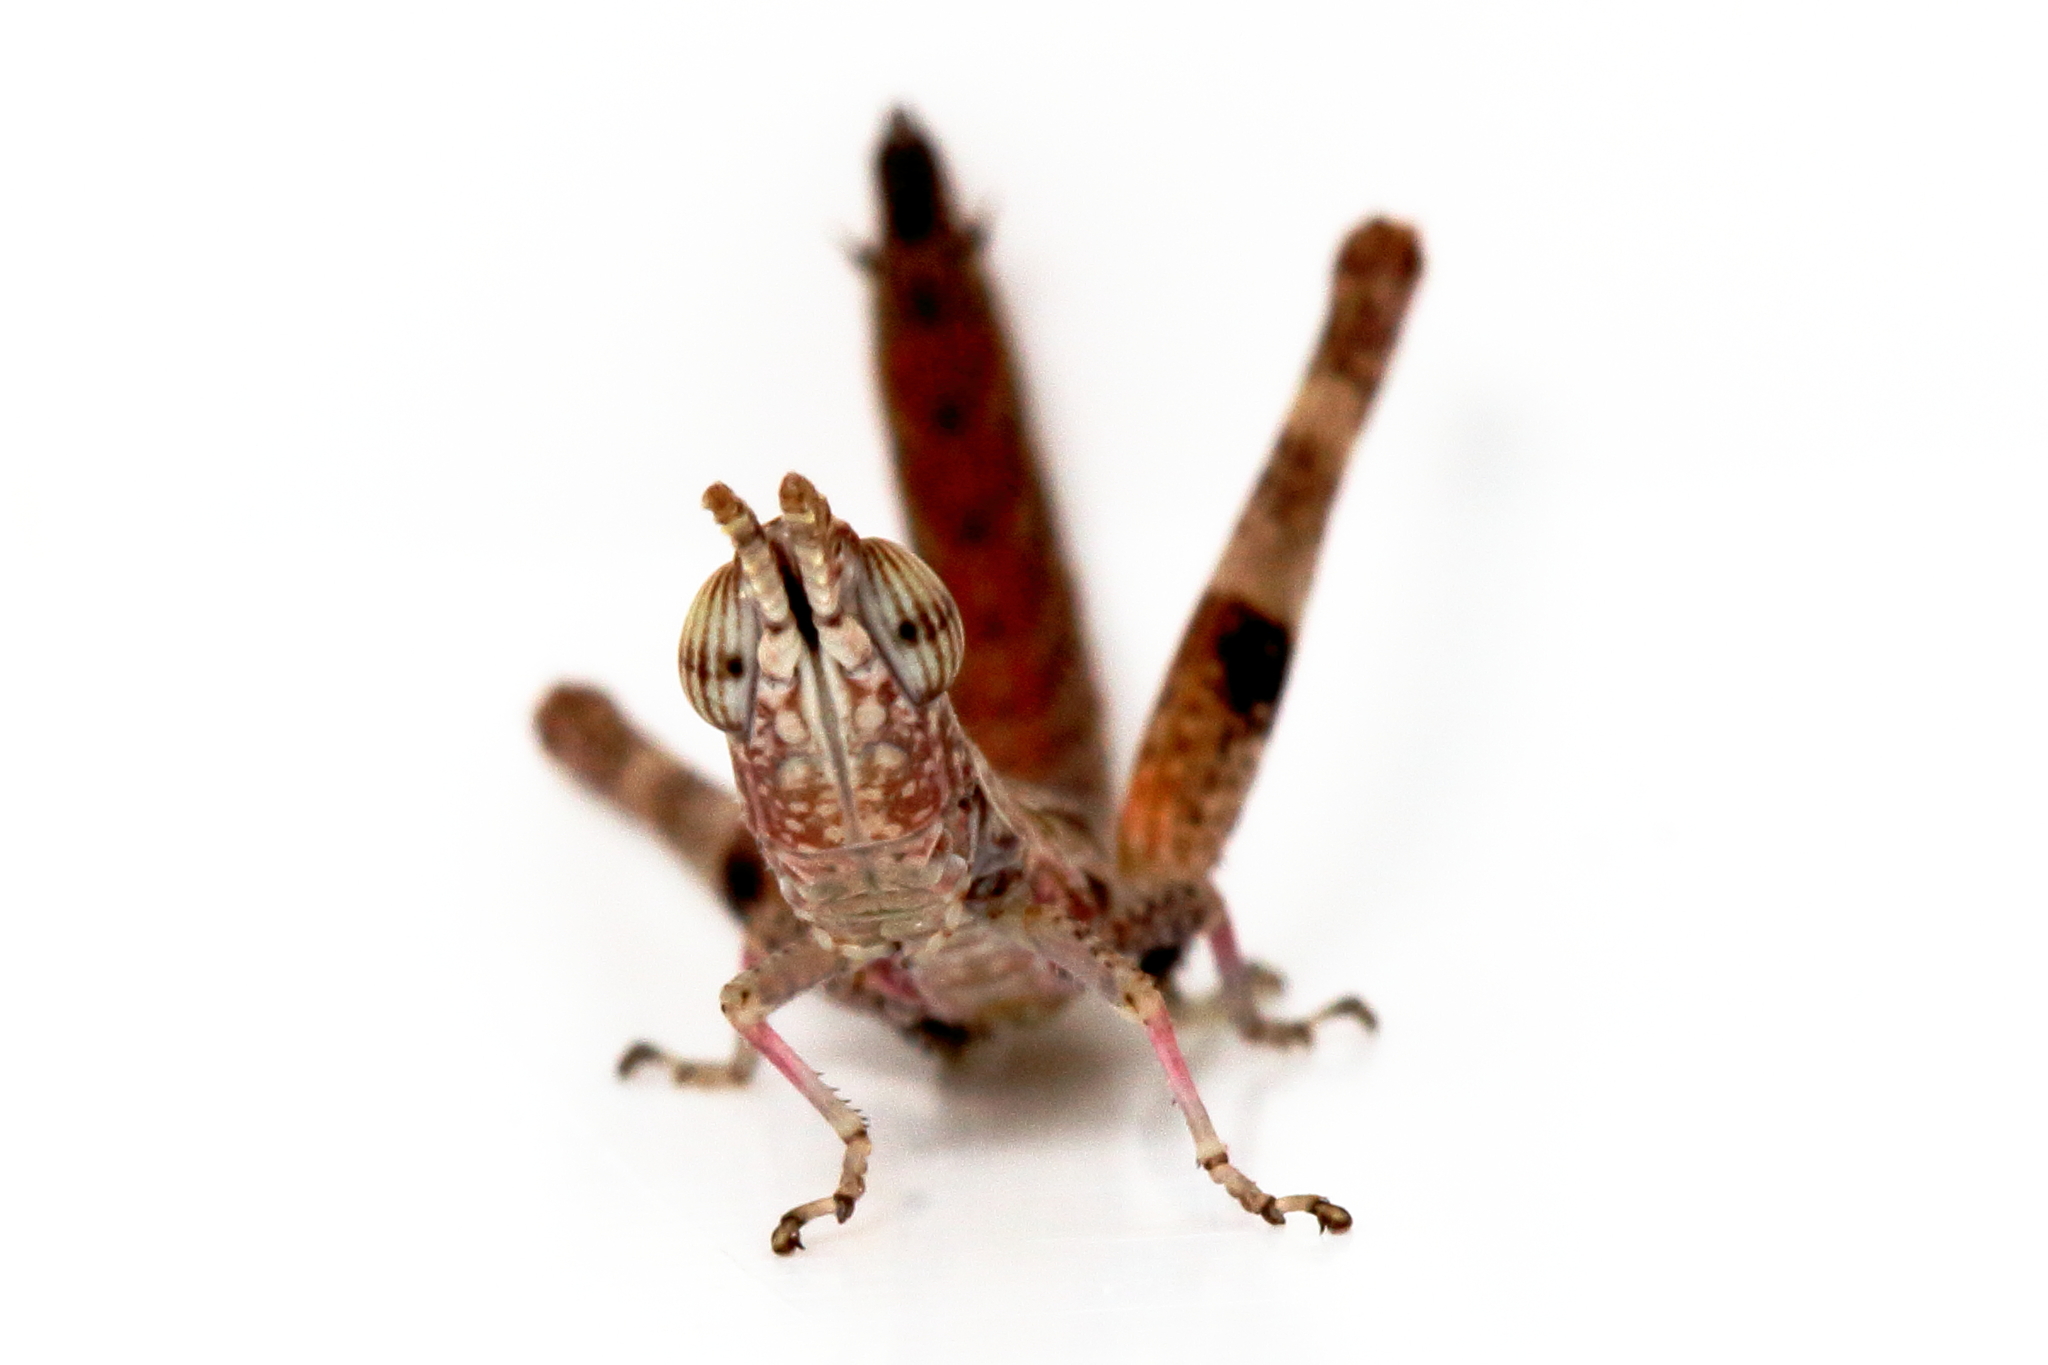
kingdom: Animalia
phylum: Arthropoda
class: Insecta
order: Orthoptera
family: Morabidae
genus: Micromeeka
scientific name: Micromeeka minuta
